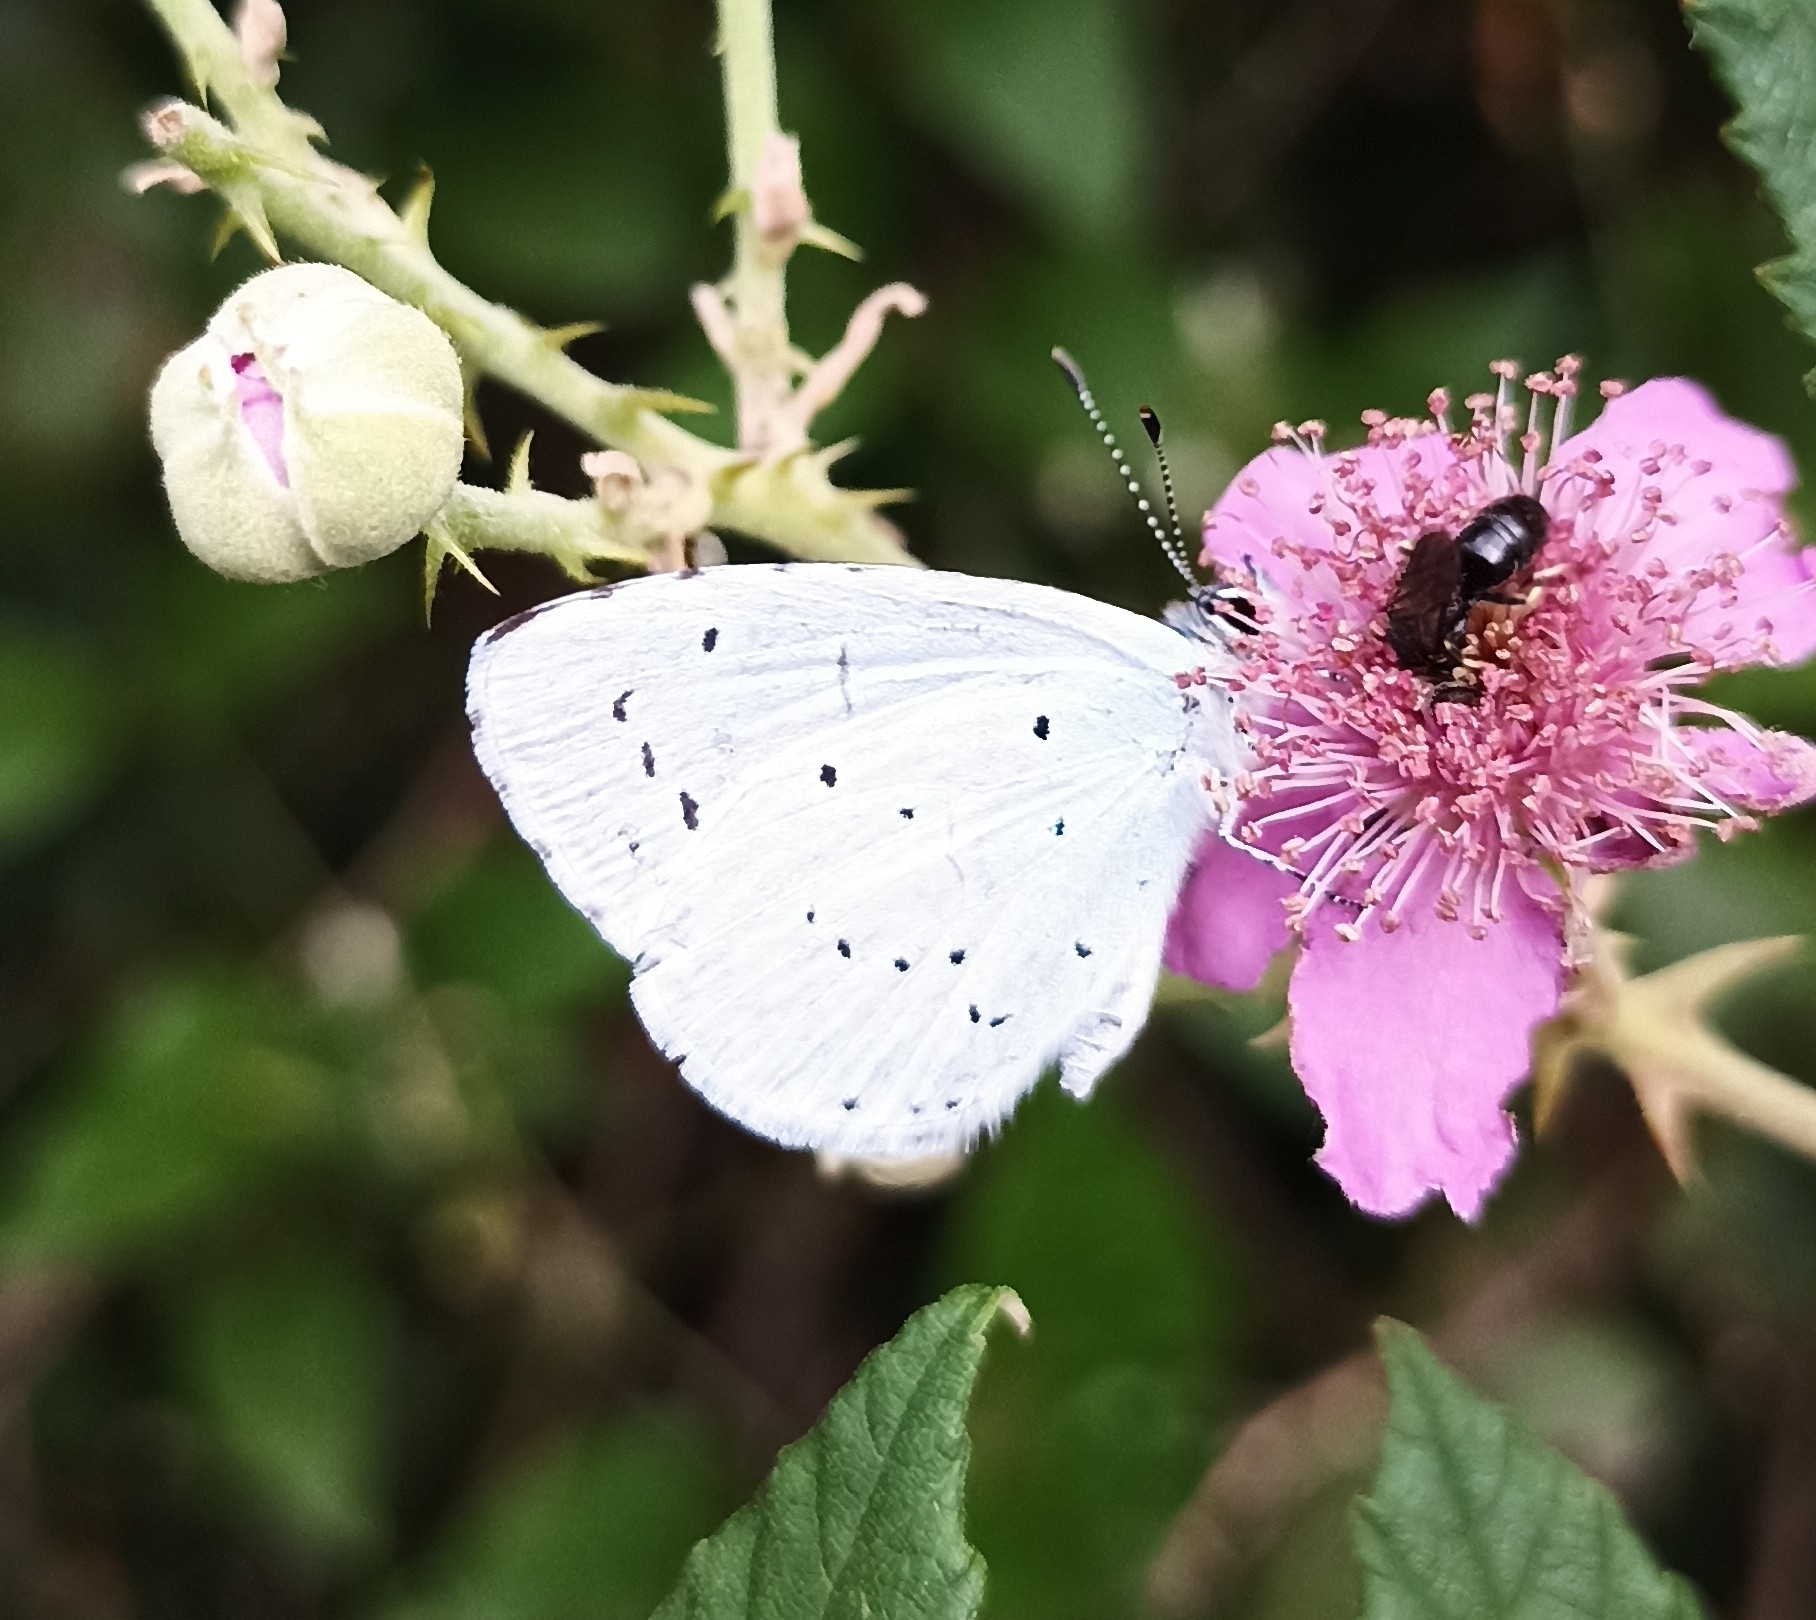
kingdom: Animalia
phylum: Arthropoda
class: Insecta
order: Lepidoptera
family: Lycaenidae
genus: Celastrina
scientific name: Celastrina argiolus
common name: Holly blue
